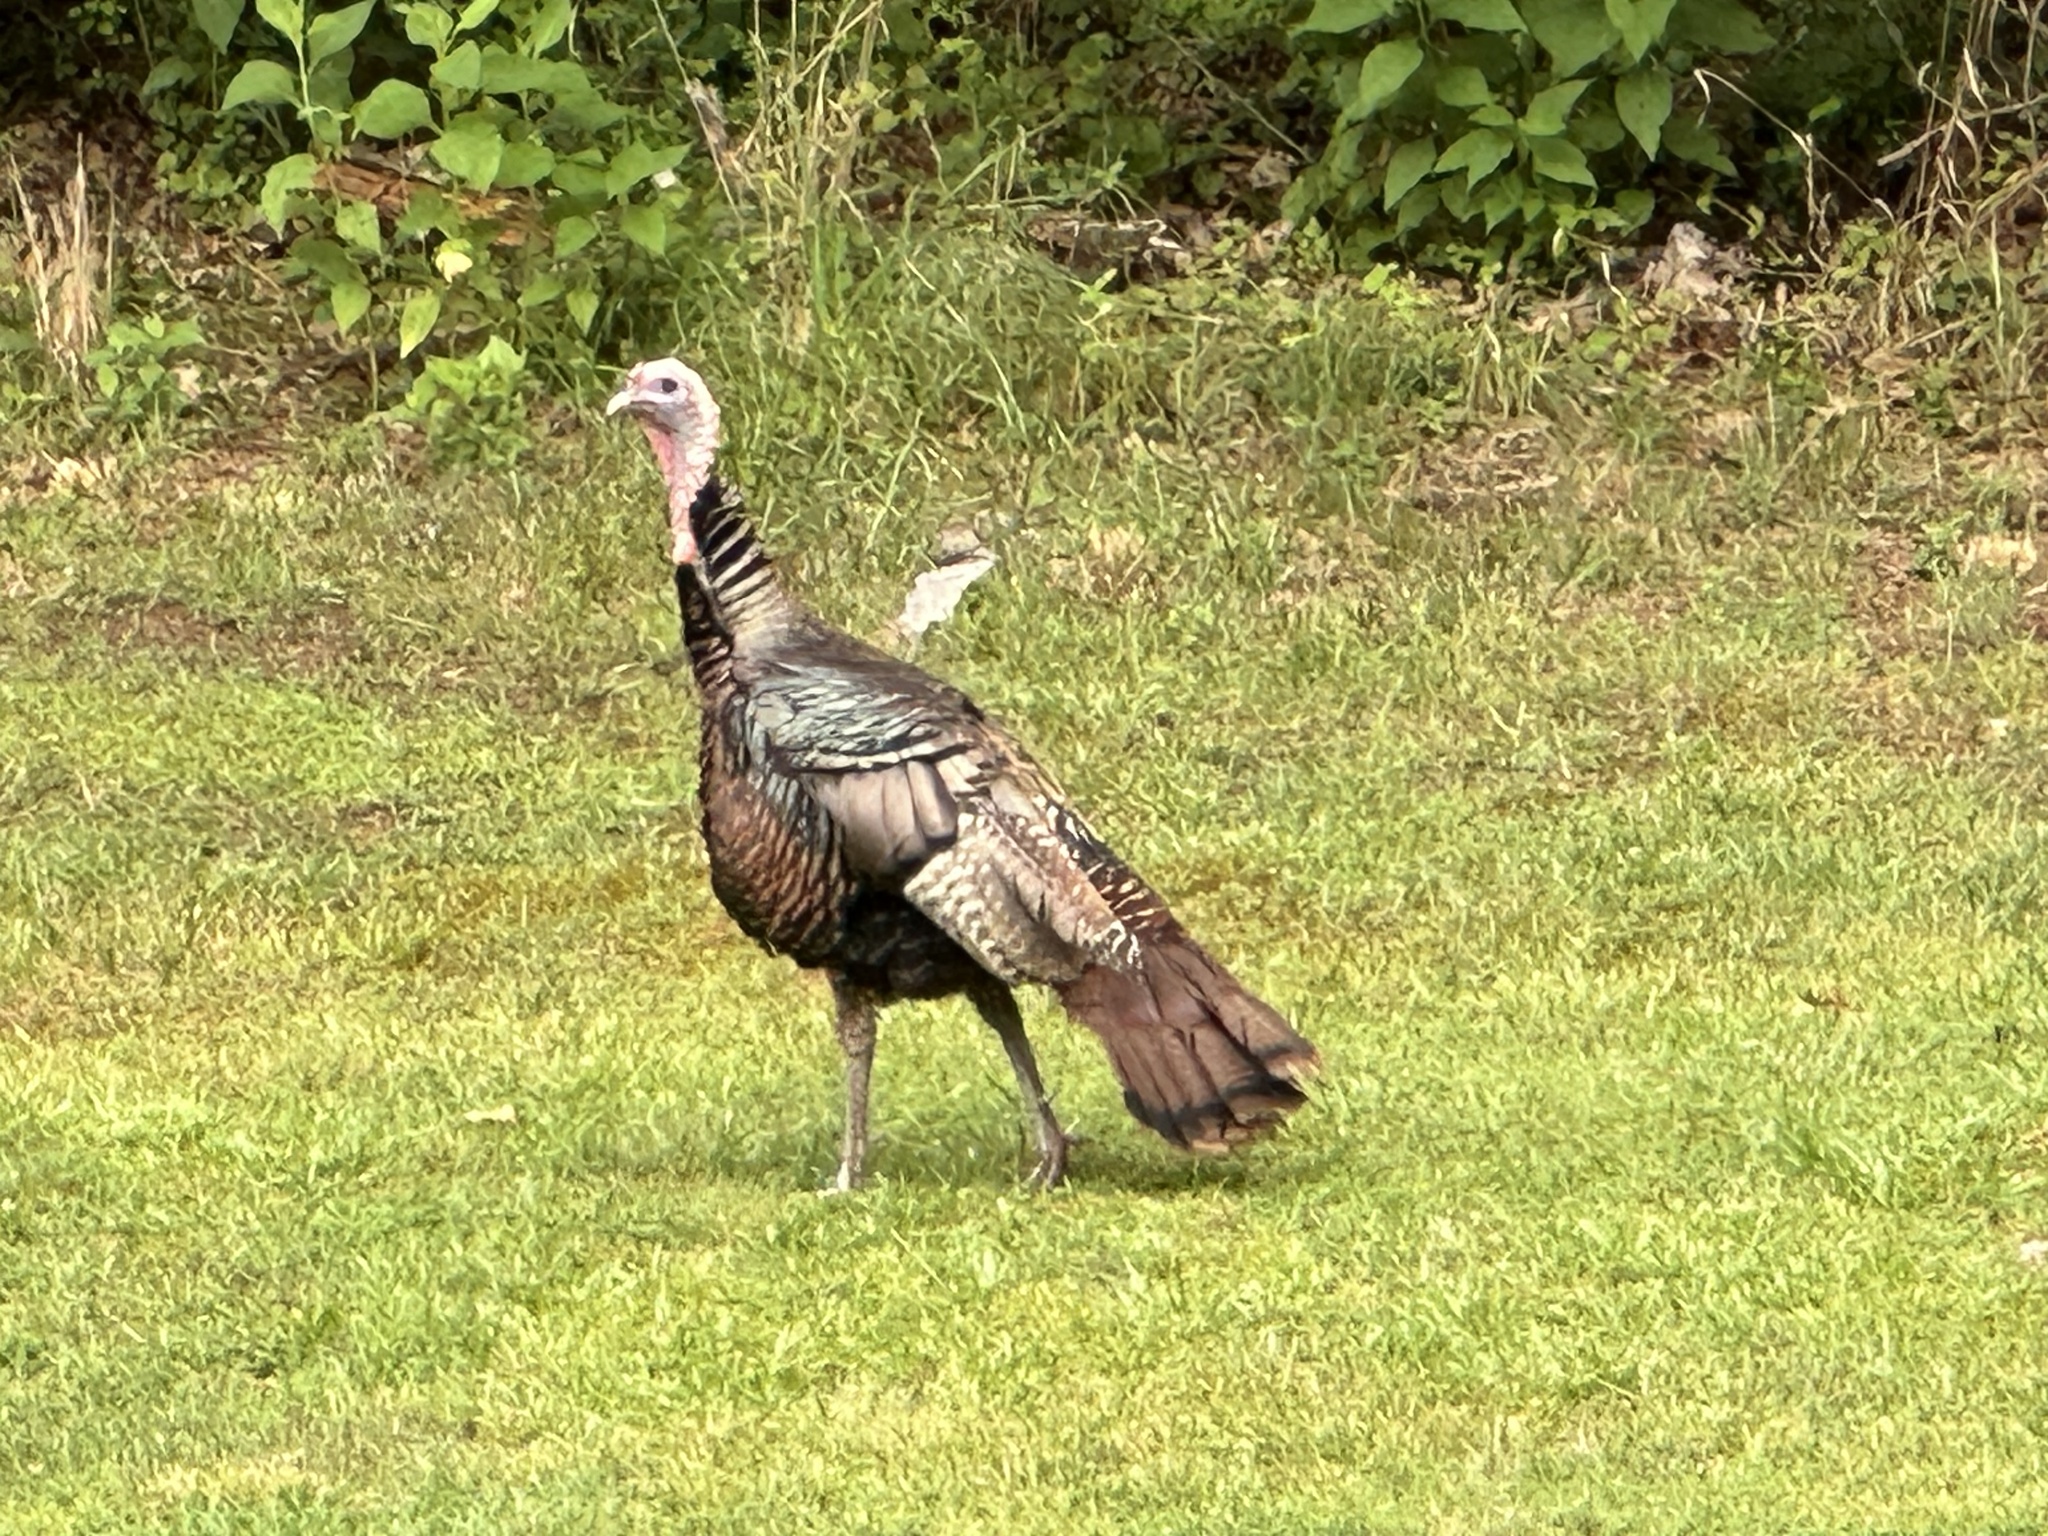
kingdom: Animalia
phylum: Chordata
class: Aves
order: Galliformes
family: Phasianidae
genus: Meleagris
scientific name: Meleagris gallopavo
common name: Wild turkey
